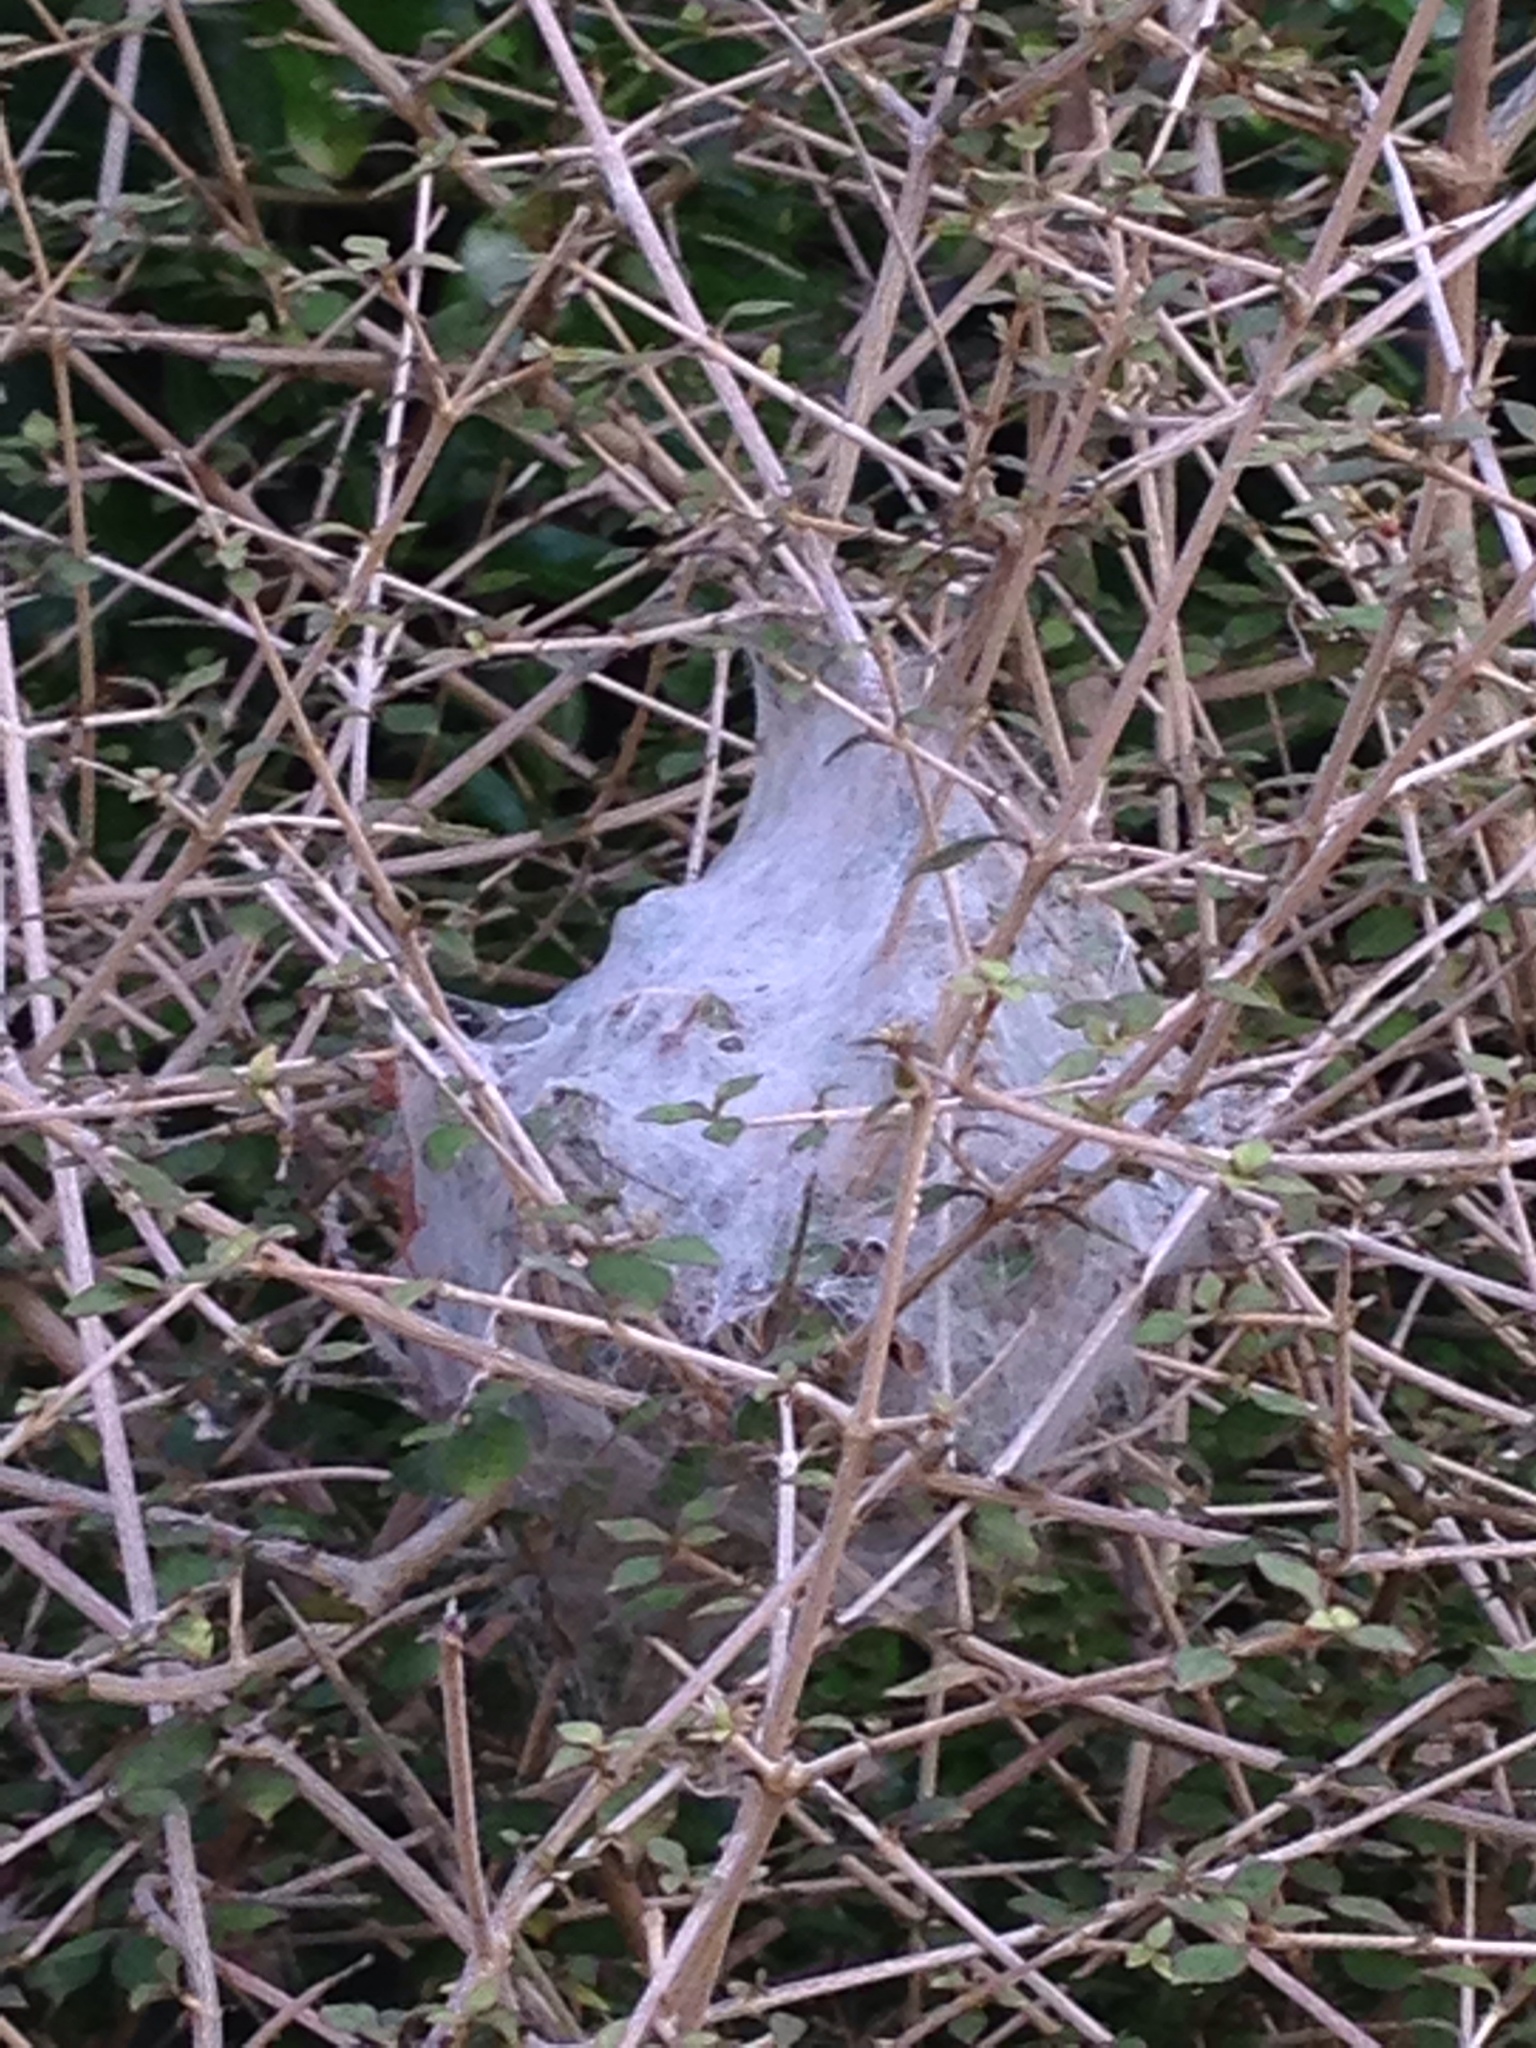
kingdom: Animalia
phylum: Arthropoda
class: Arachnida
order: Araneae
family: Pisauridae
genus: Dolomedes
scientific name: Dolomedes minor
